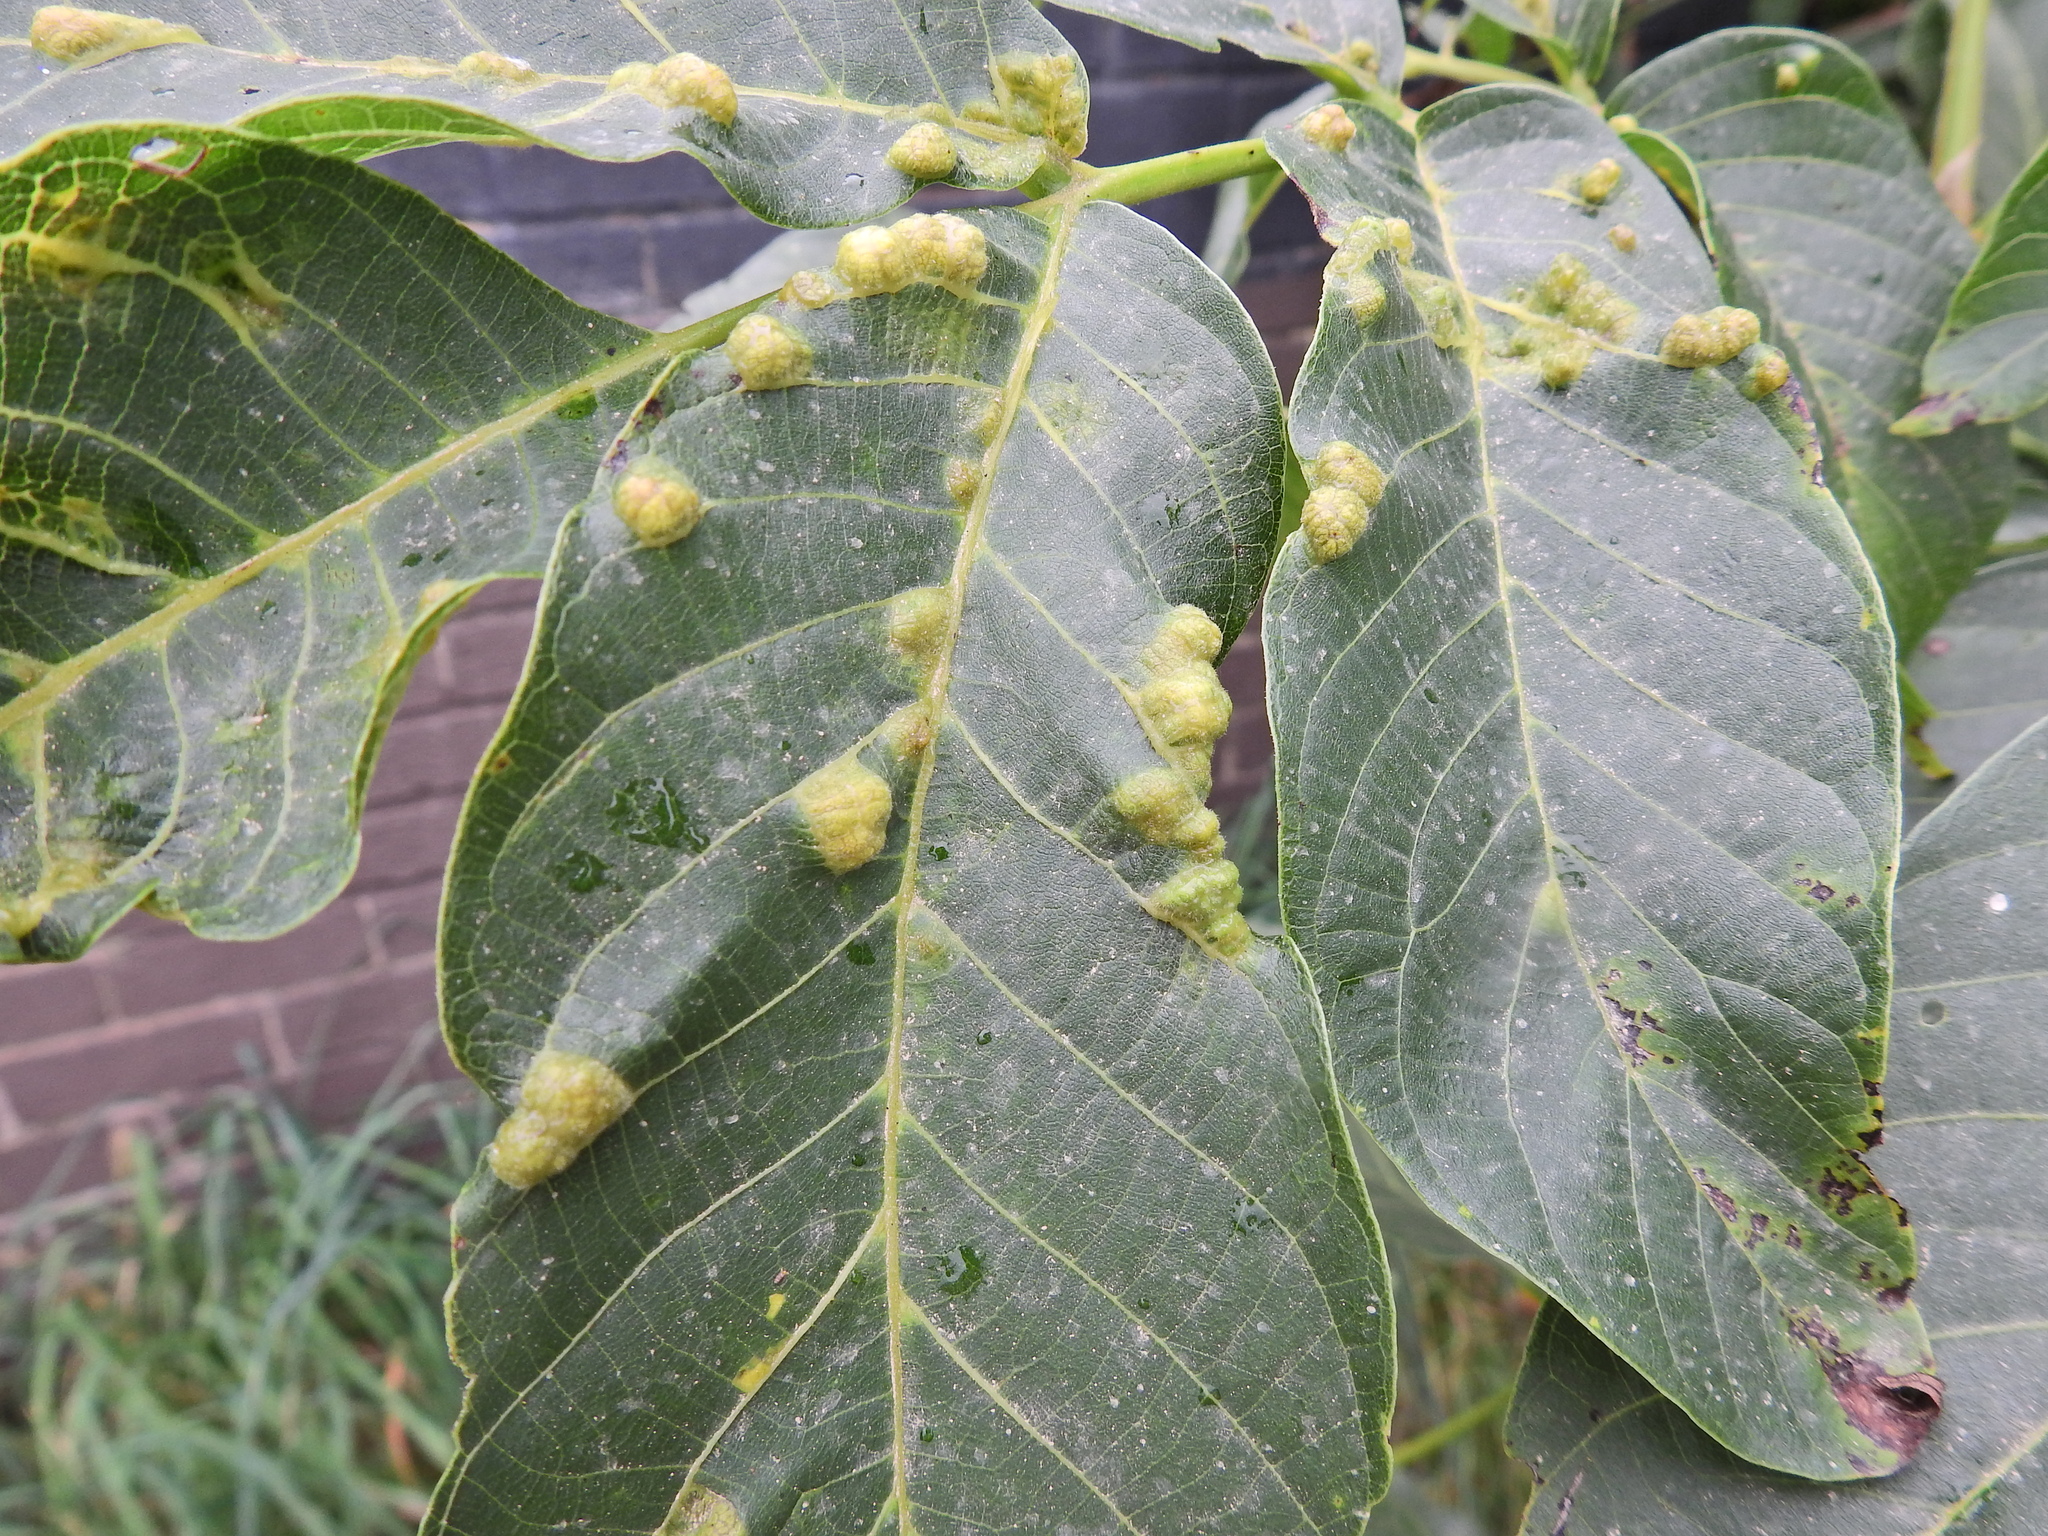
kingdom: Animalia
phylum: Arthropoda
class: Arachnida
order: Trombidiformes
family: Eriophyidae
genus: Aceria
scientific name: Aceria erinea
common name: Persian walnut erineum mite
